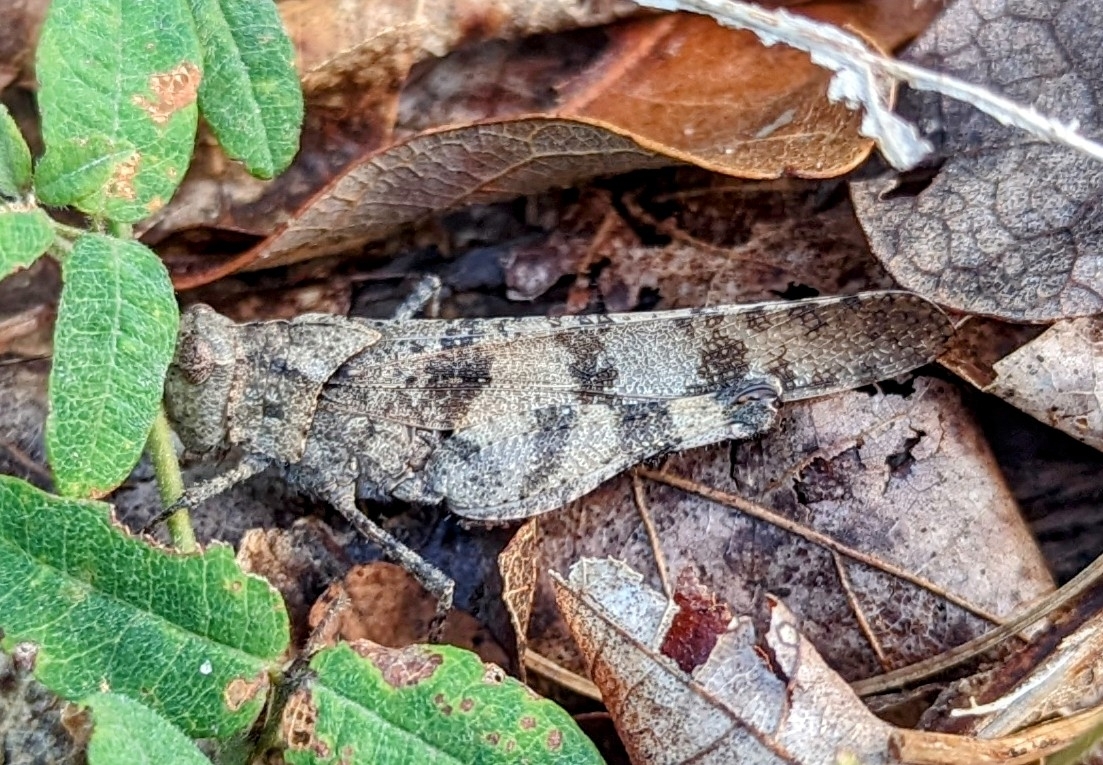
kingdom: Animalia
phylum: Arthropoda
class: Insecta
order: Orthoptera
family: Acrididae
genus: Spharagemon
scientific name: Spharagemon bolli
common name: Boll's grasshopper
